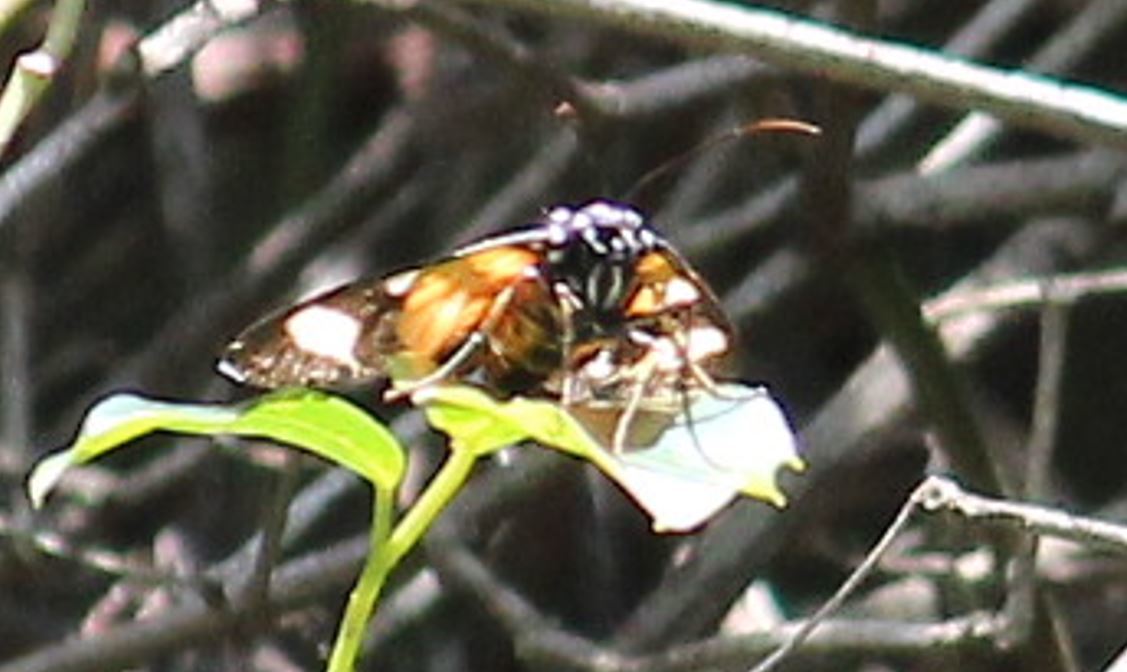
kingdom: Animalia
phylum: Arthropoda
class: Insecta
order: Lepidoptera
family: Noctuidae
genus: Agoma
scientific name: Agoma trimenii
